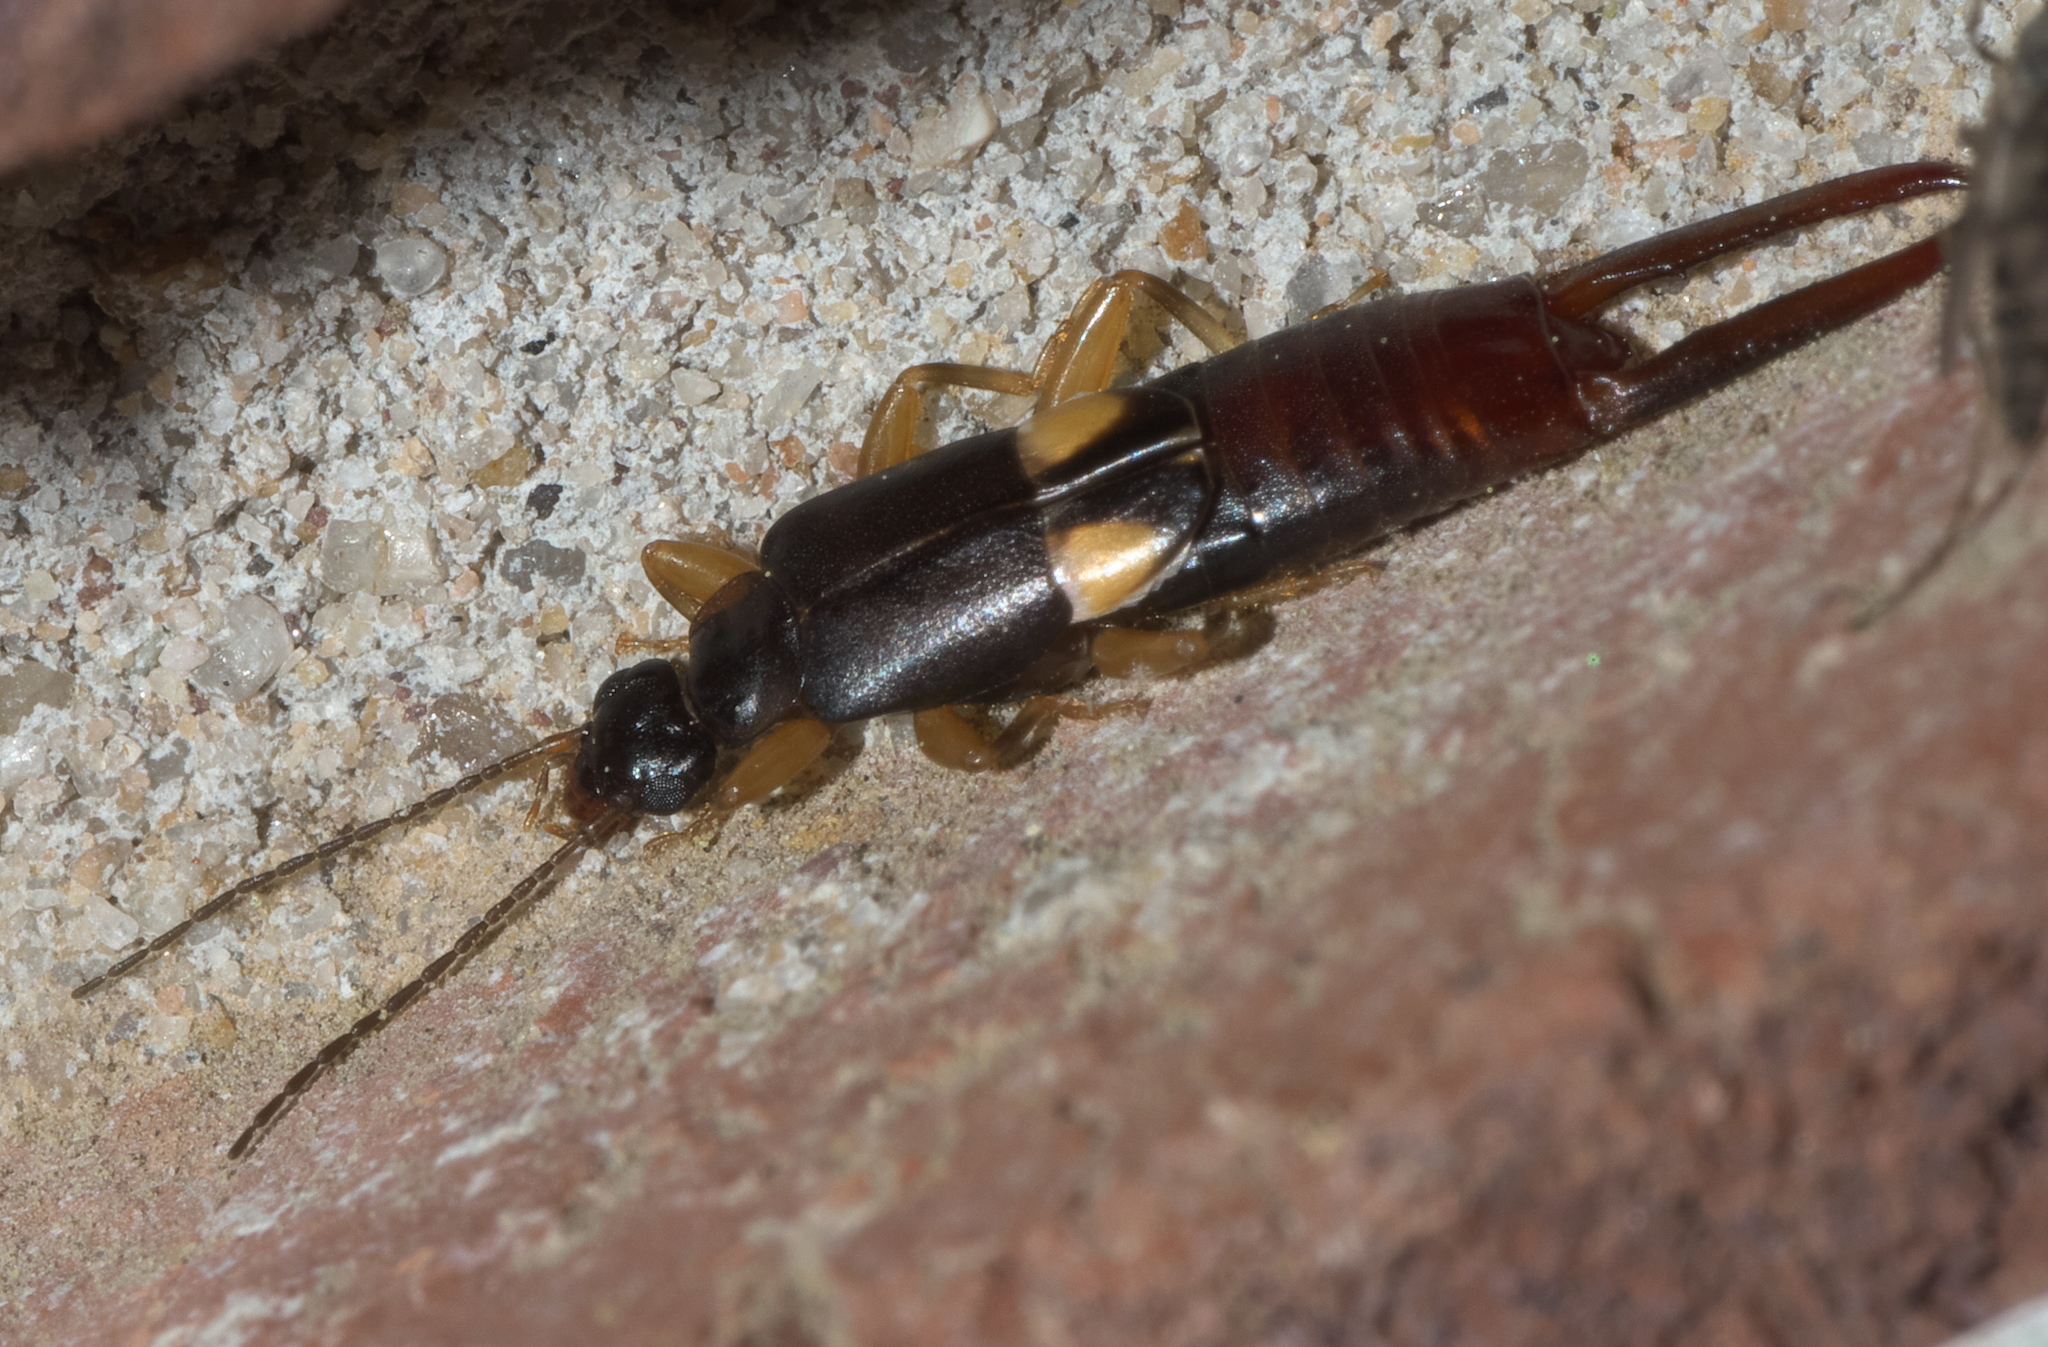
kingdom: Animalia
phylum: Arthropoda
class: Insecta
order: Dermaptera
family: Spongiphoridae
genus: Vostox
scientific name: Vostox brunneipennis
